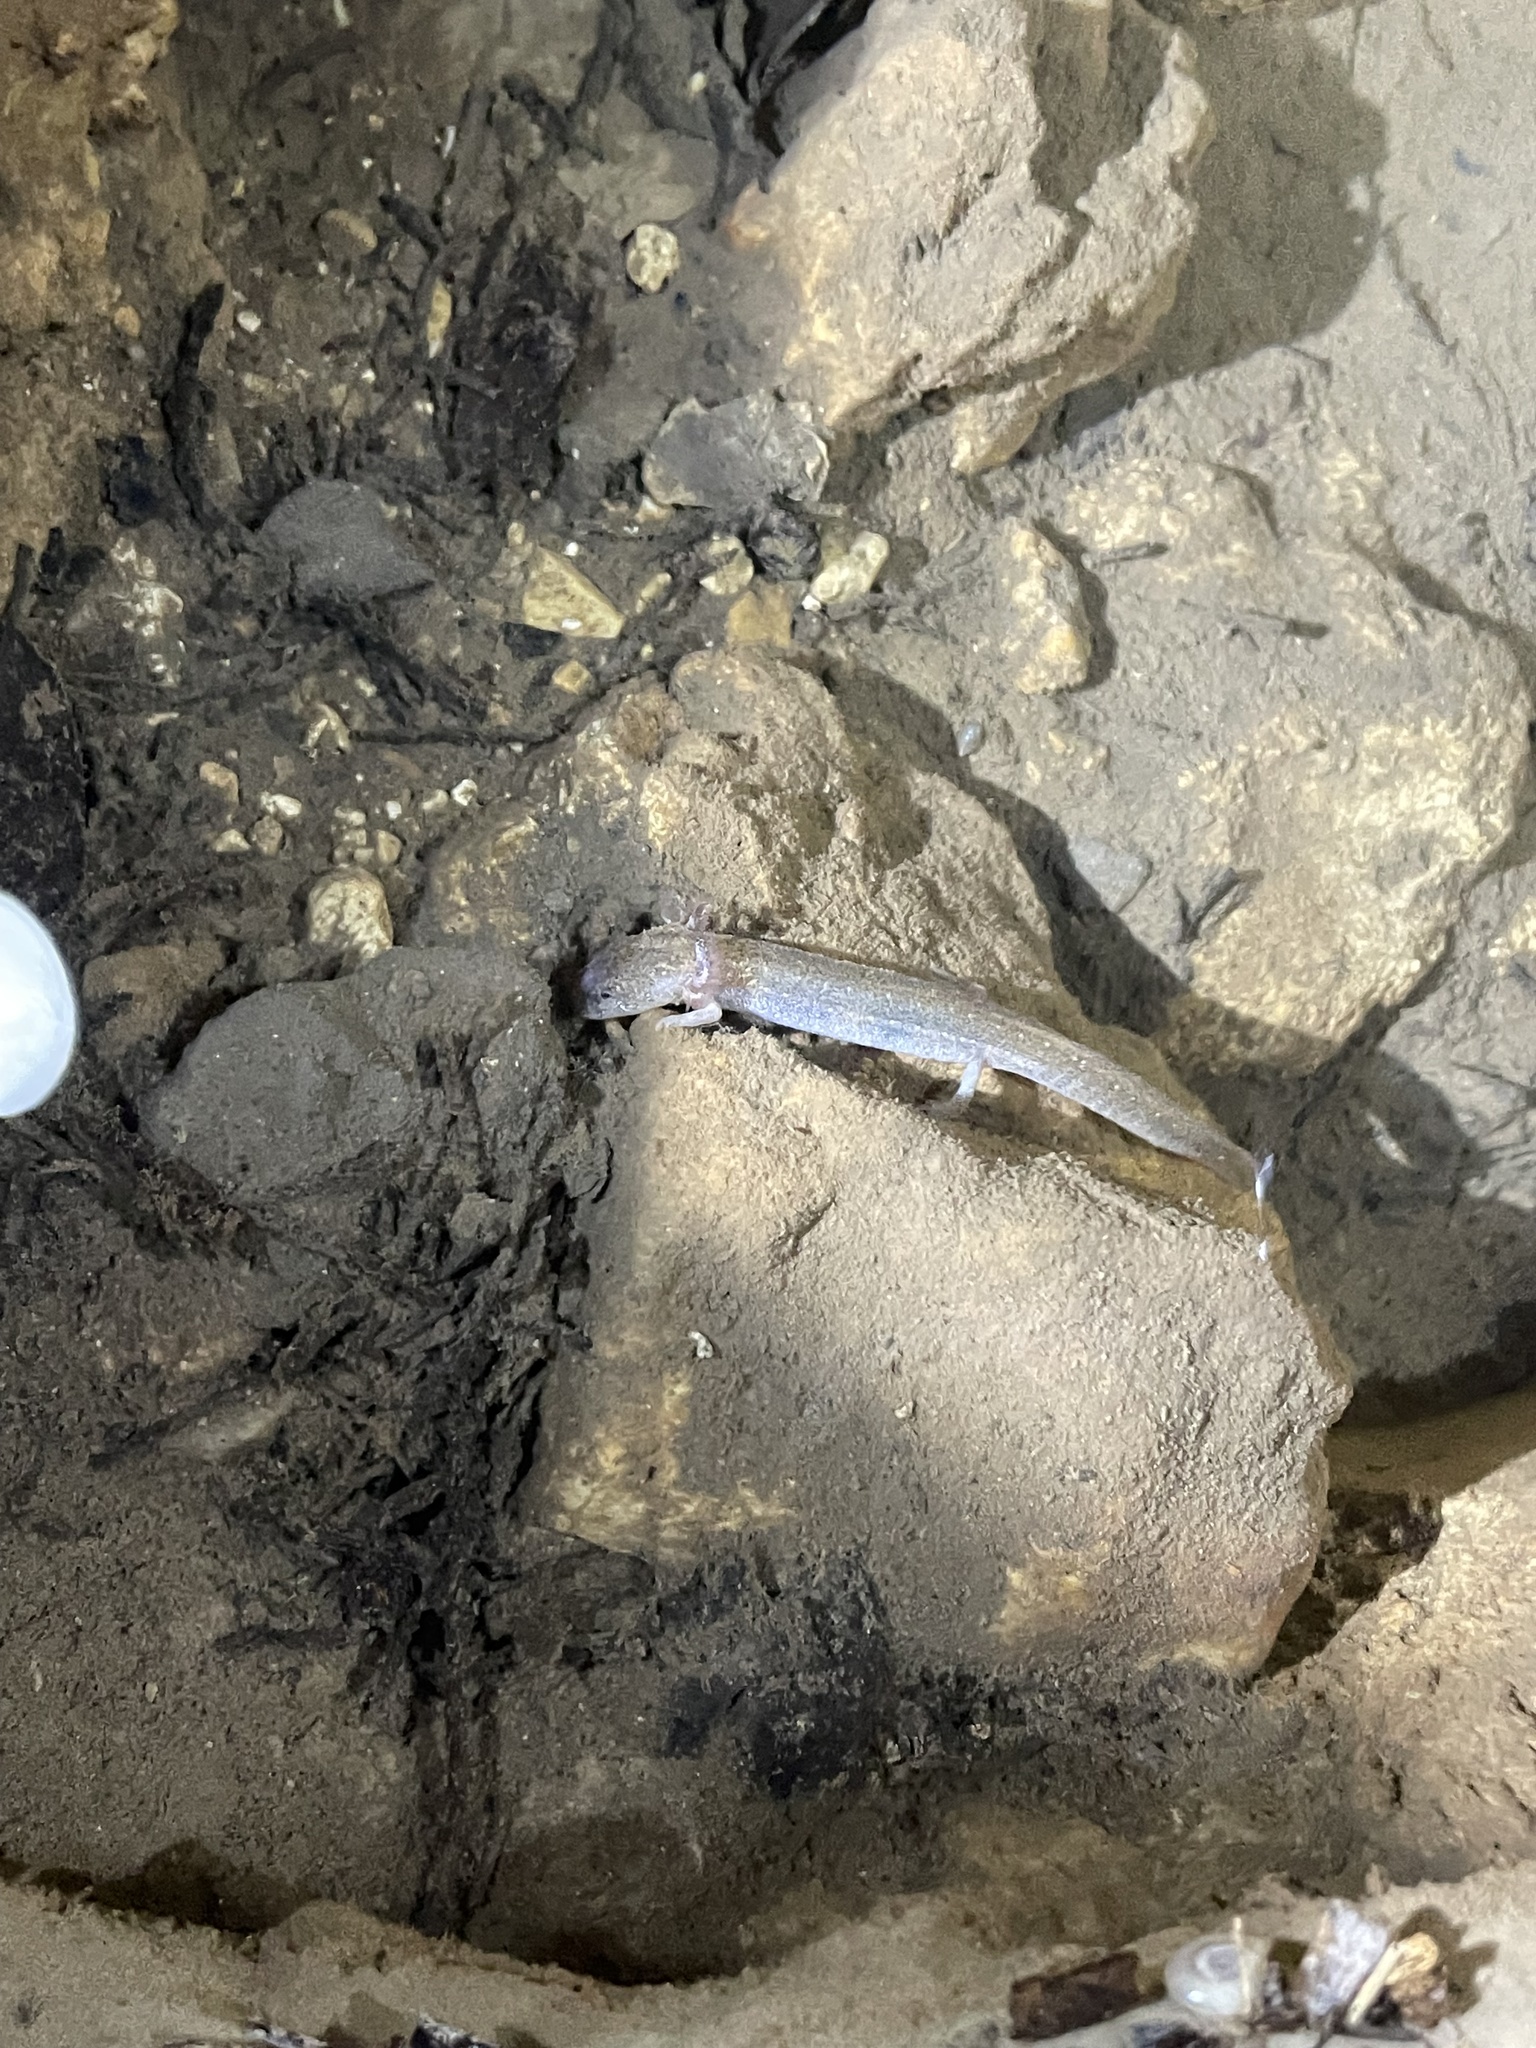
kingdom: Animalia
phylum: Chordata
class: Amphibia
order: Caudata
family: Plethodontidae
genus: Eurycea
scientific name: Eurycea latitans
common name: Cascade caverns salamander
